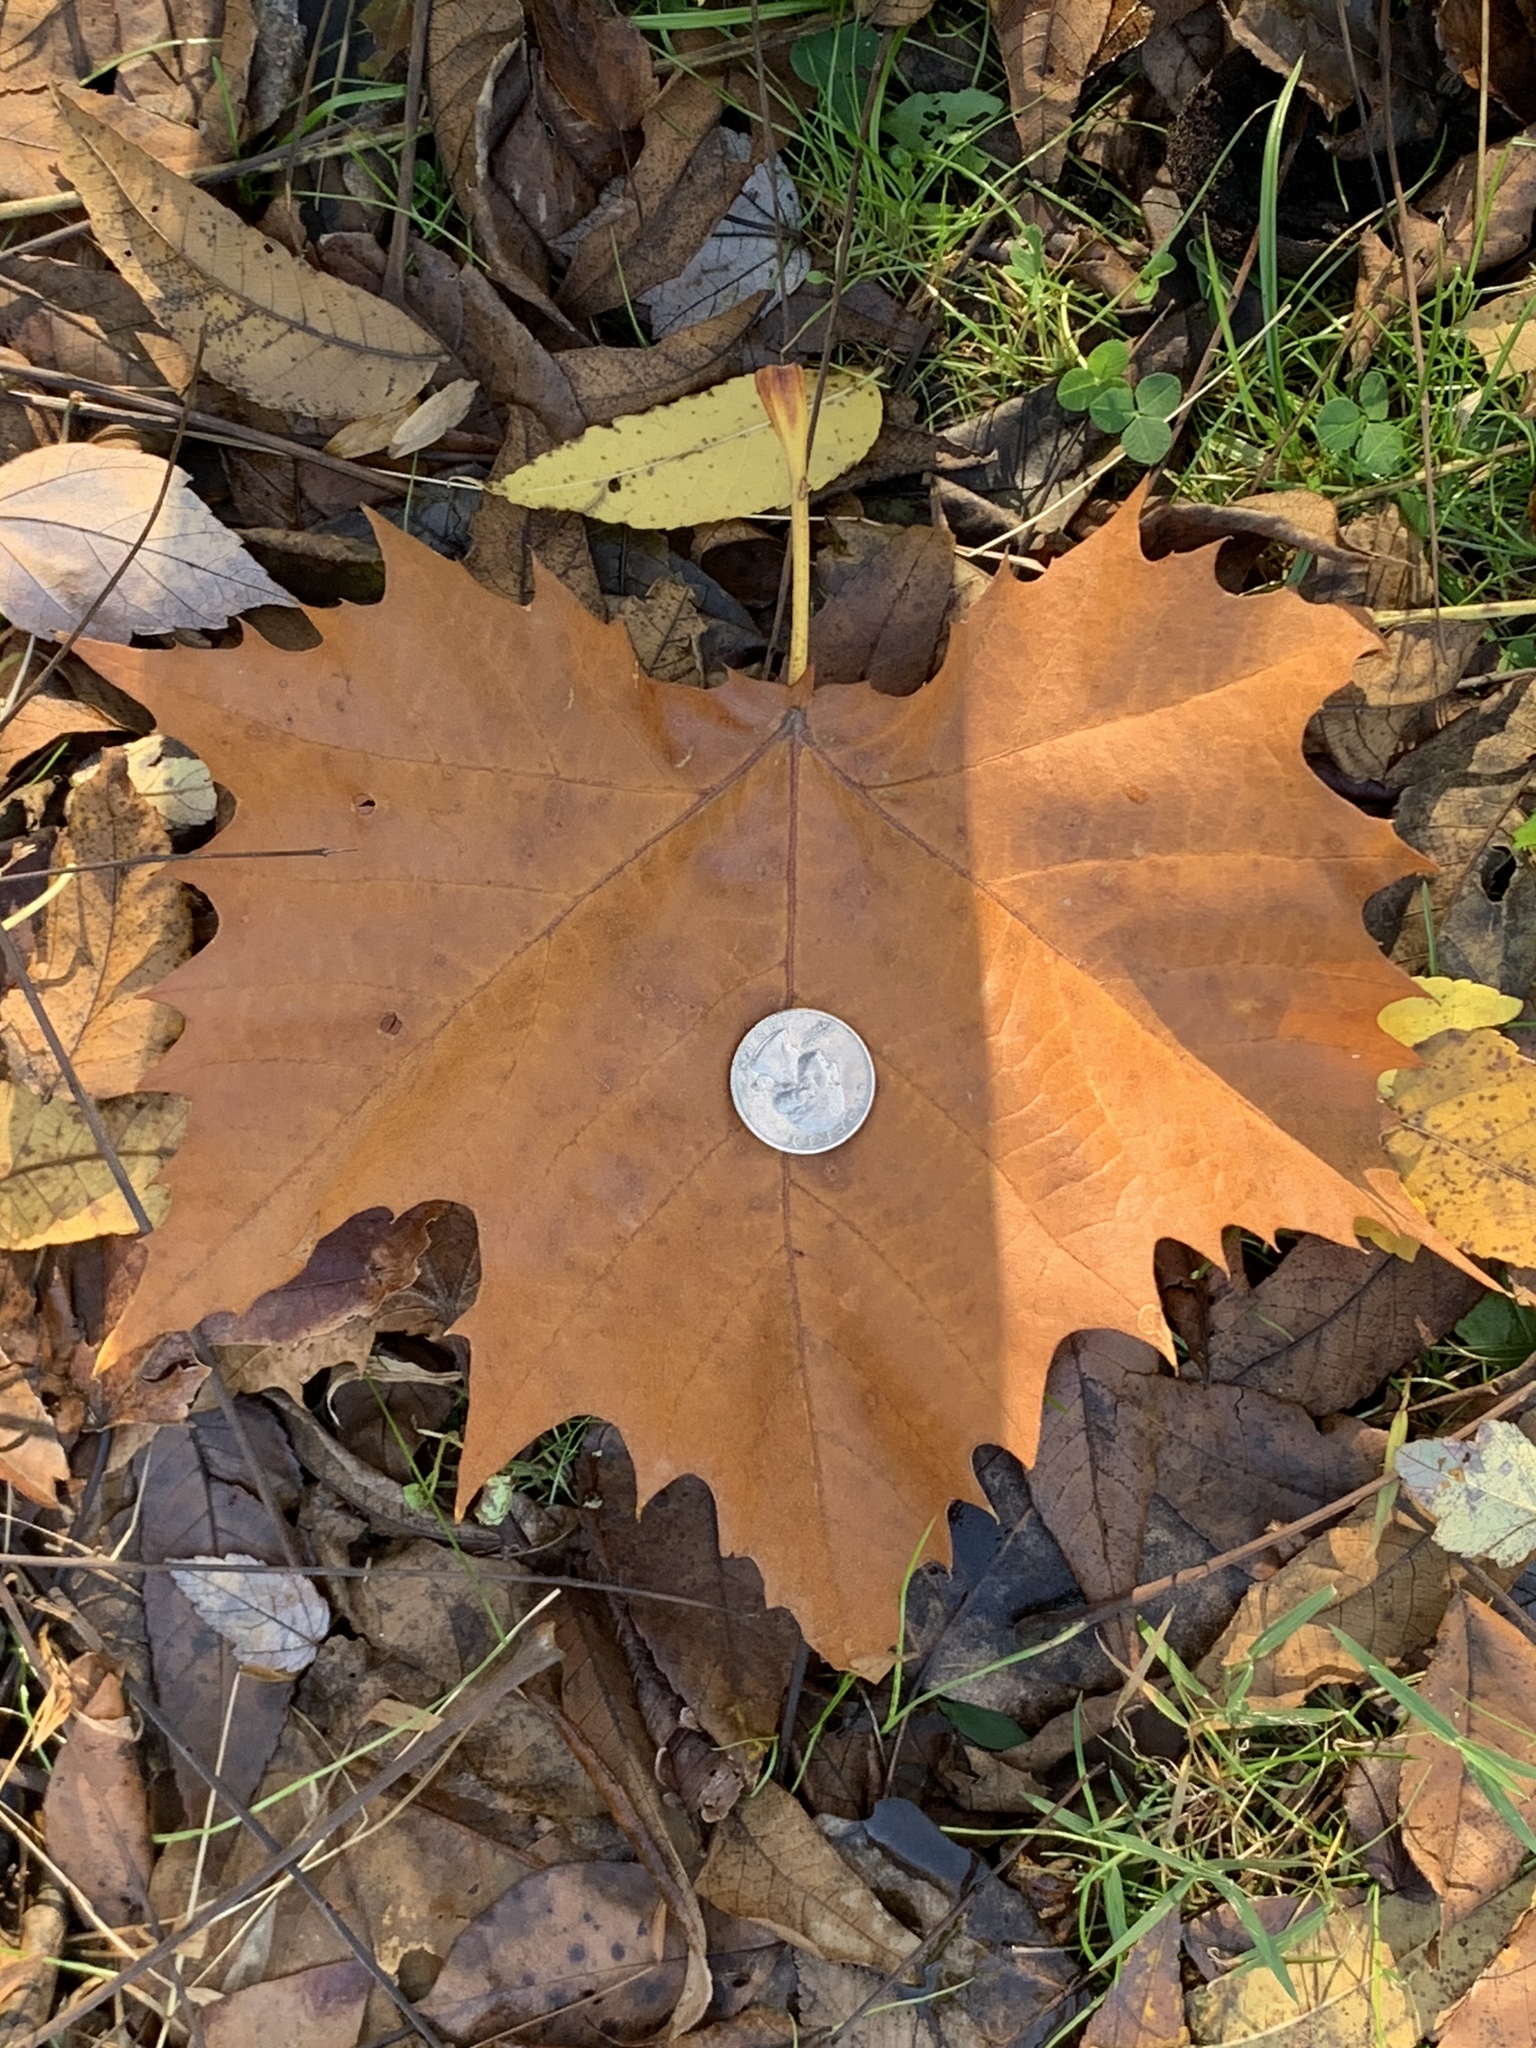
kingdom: Plantae
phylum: Tracheophyta
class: Magnoliopsida
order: Proteales
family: Platanaceae
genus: Platanus
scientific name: Platanus occidentalis
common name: American sycamore
